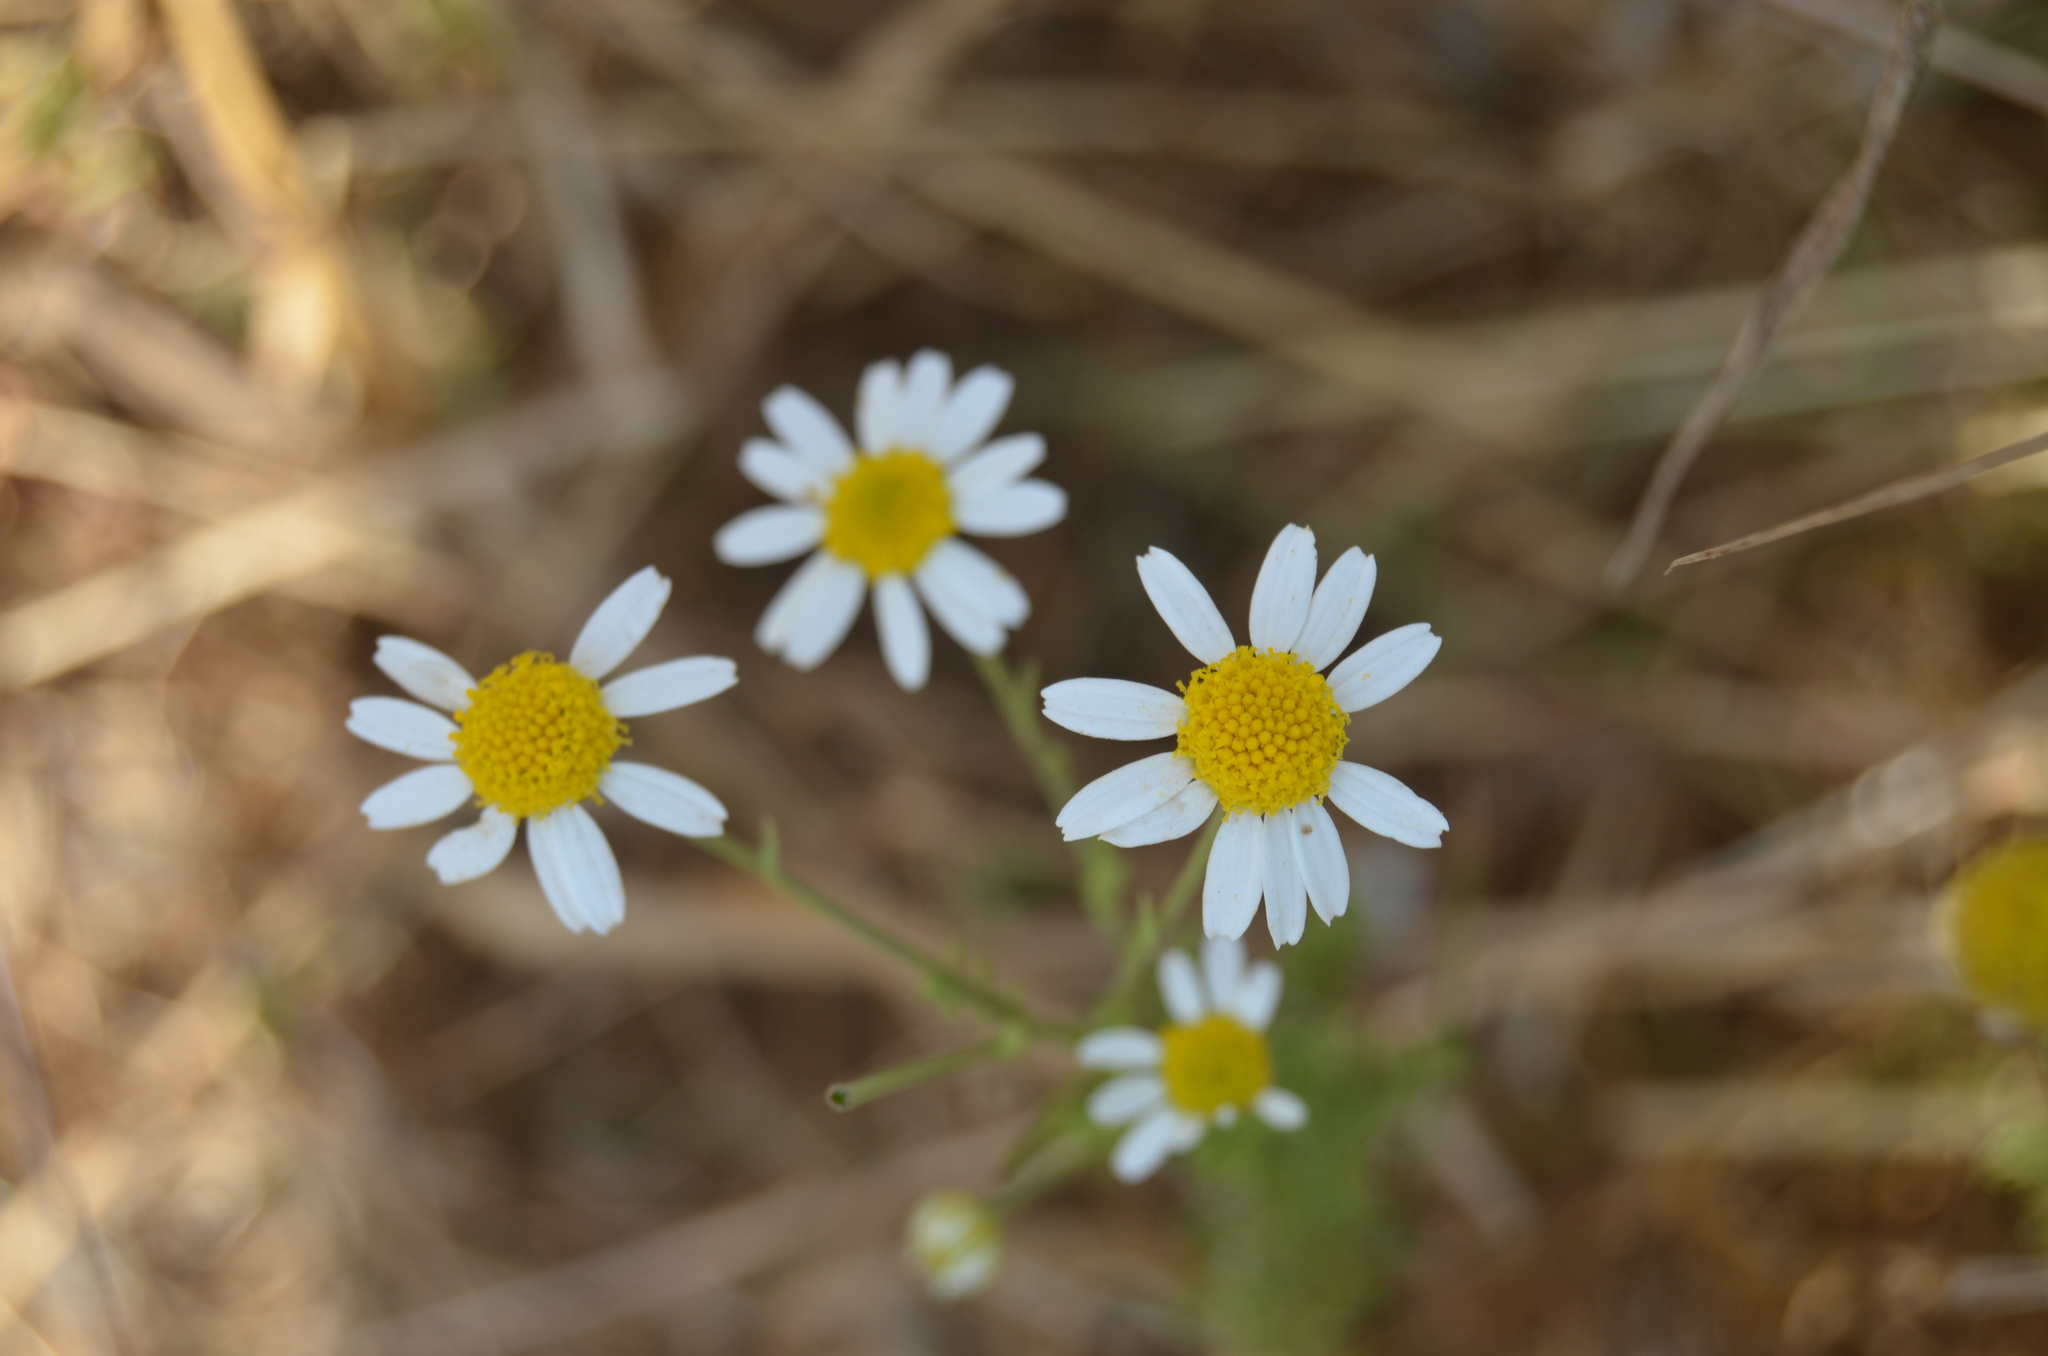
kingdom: Plantae
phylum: Tracheophyta
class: Magnoliopsida
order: Asterales
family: Asteraceae
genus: Matricaria
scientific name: Matricaria chamomilla
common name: Scented mayweed
